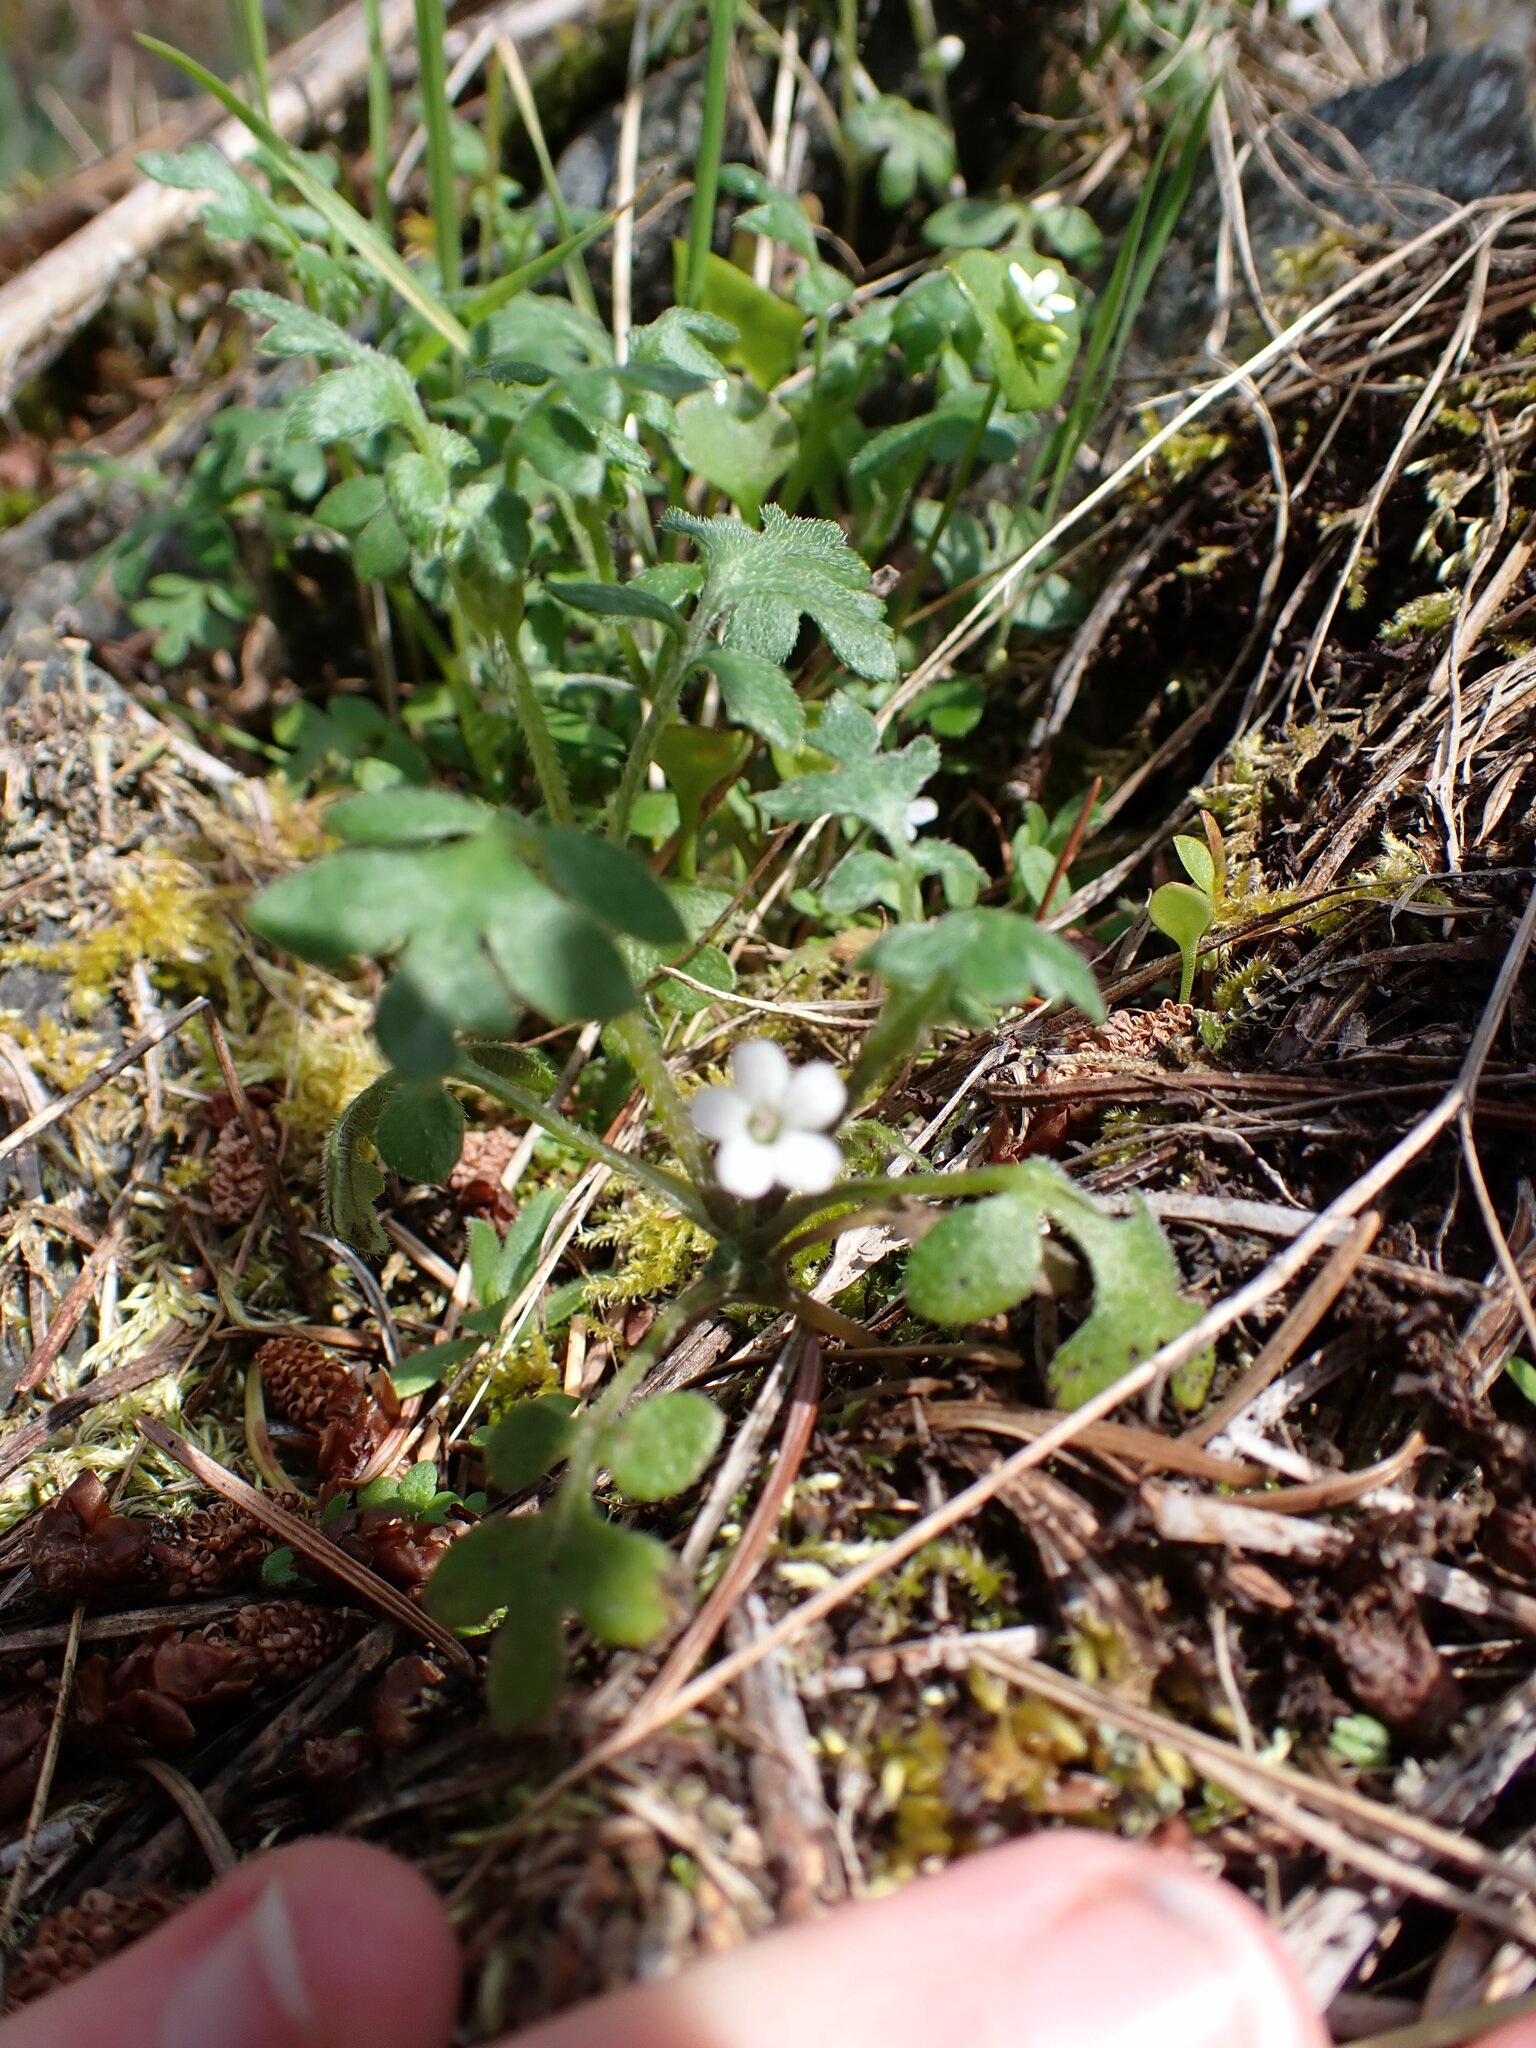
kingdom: Plantae
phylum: Tracheophyta
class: Magnoliopsida
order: Boraginales
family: Hydrophyllaceae
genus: Nemophila
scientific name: Nemophila parviflora
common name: Small-flowered baby-blue-eyes
